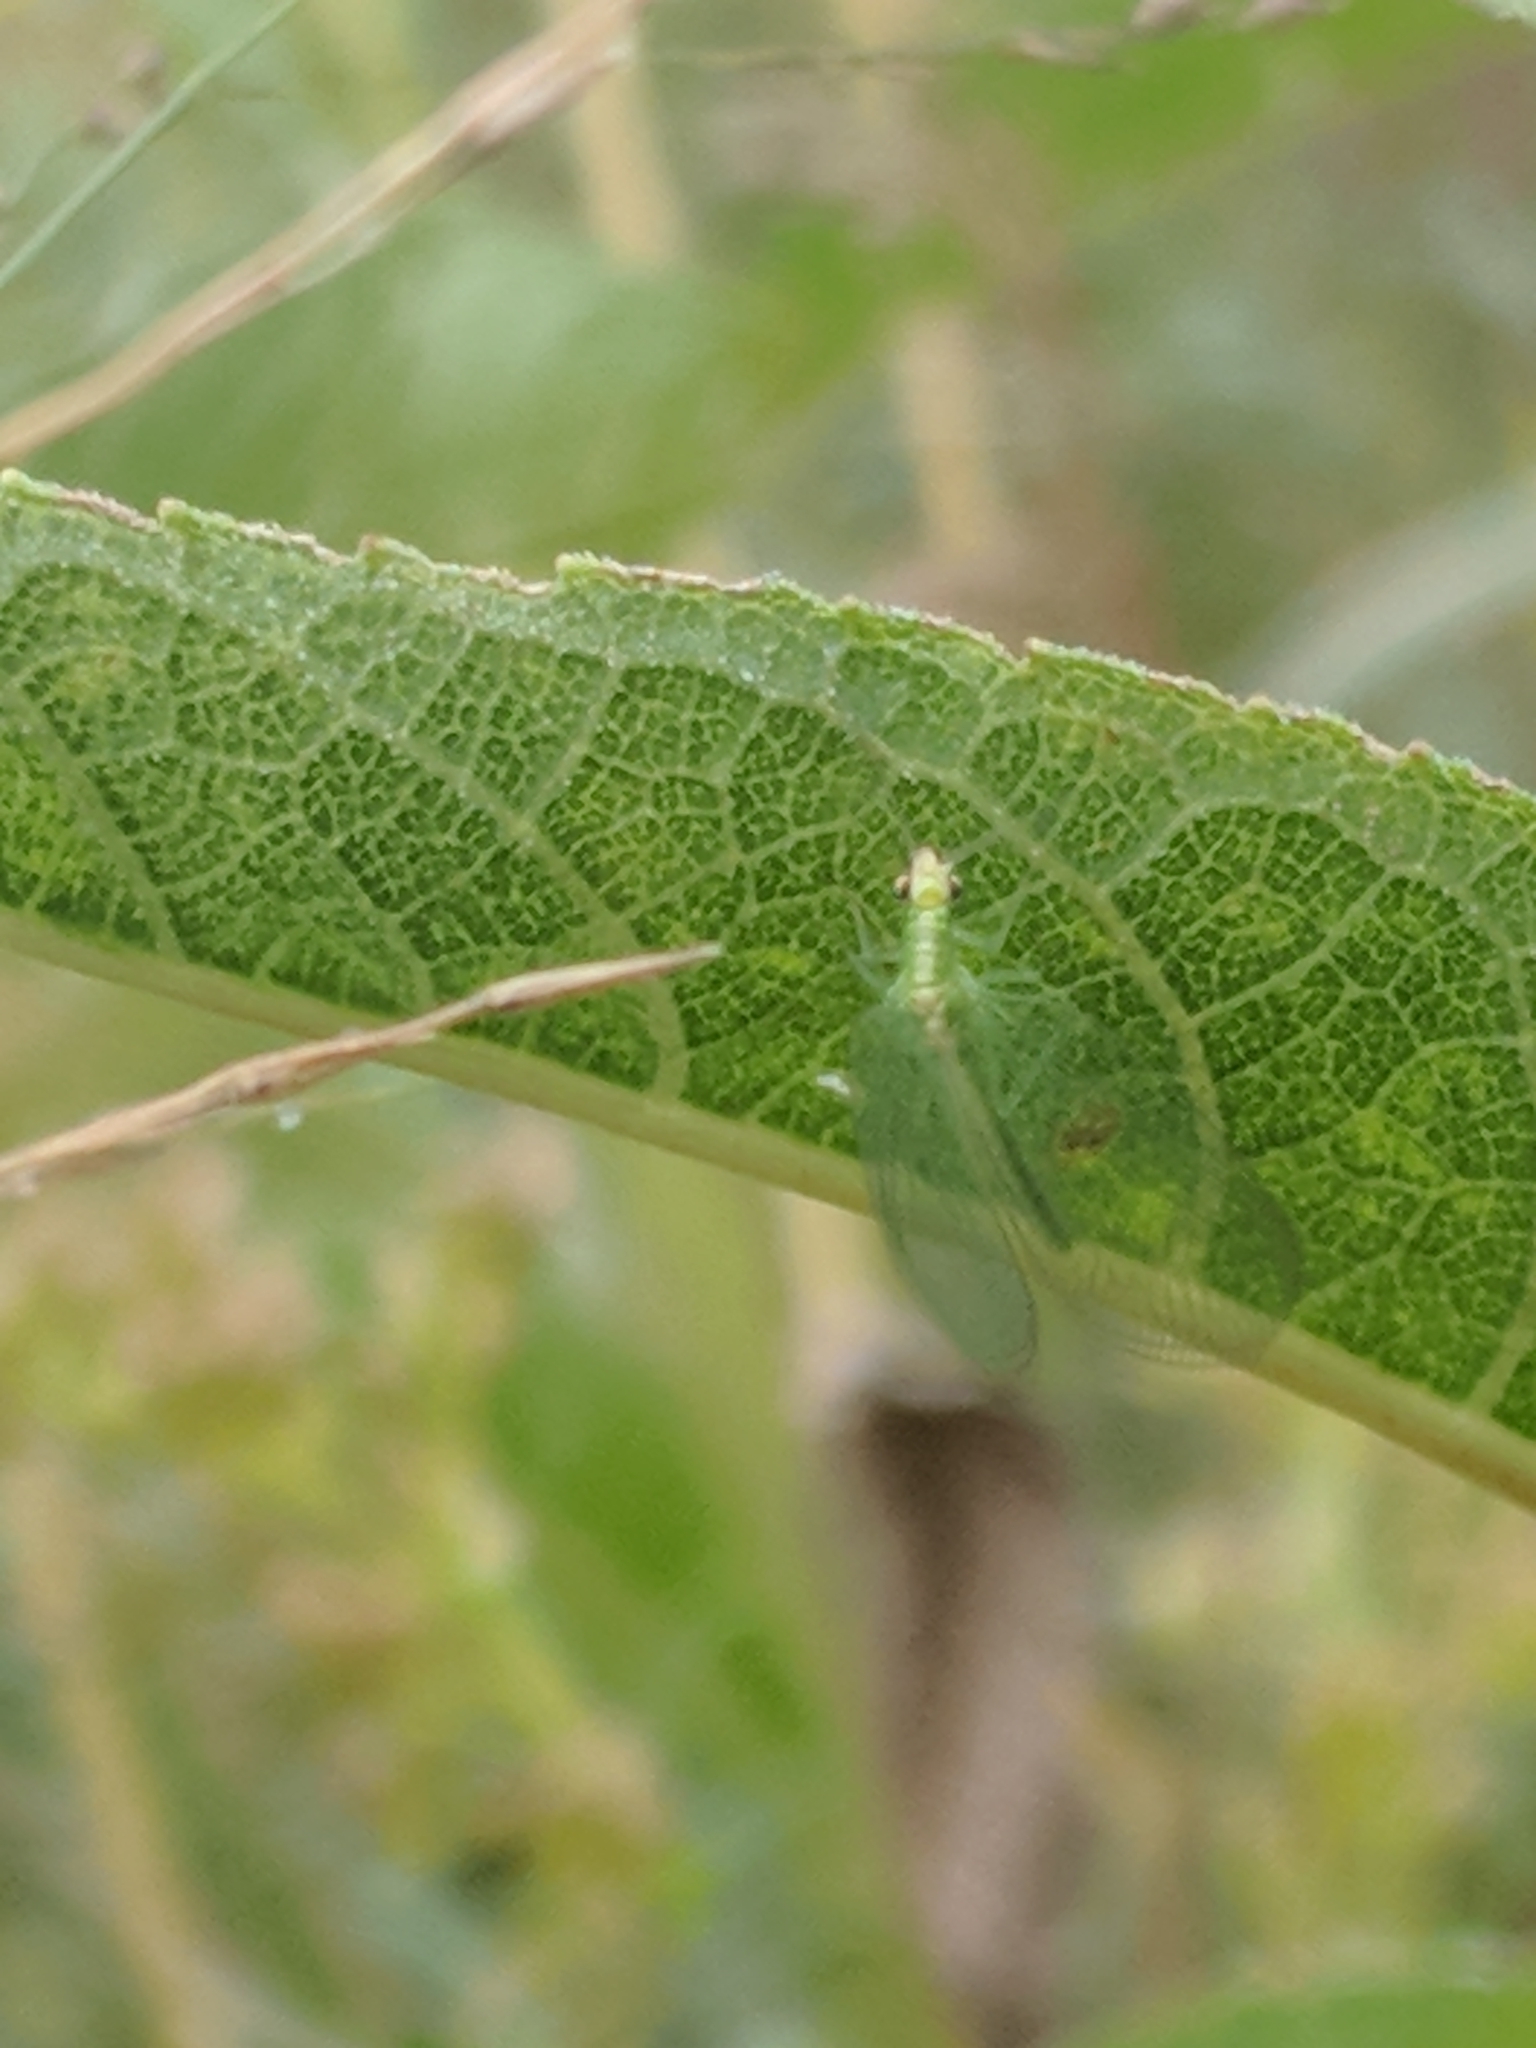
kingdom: Animalia
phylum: Arthropoda
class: Insecta
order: Neuroptera
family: Chrysopidae
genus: Chrysoperla
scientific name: Chrysoperla
